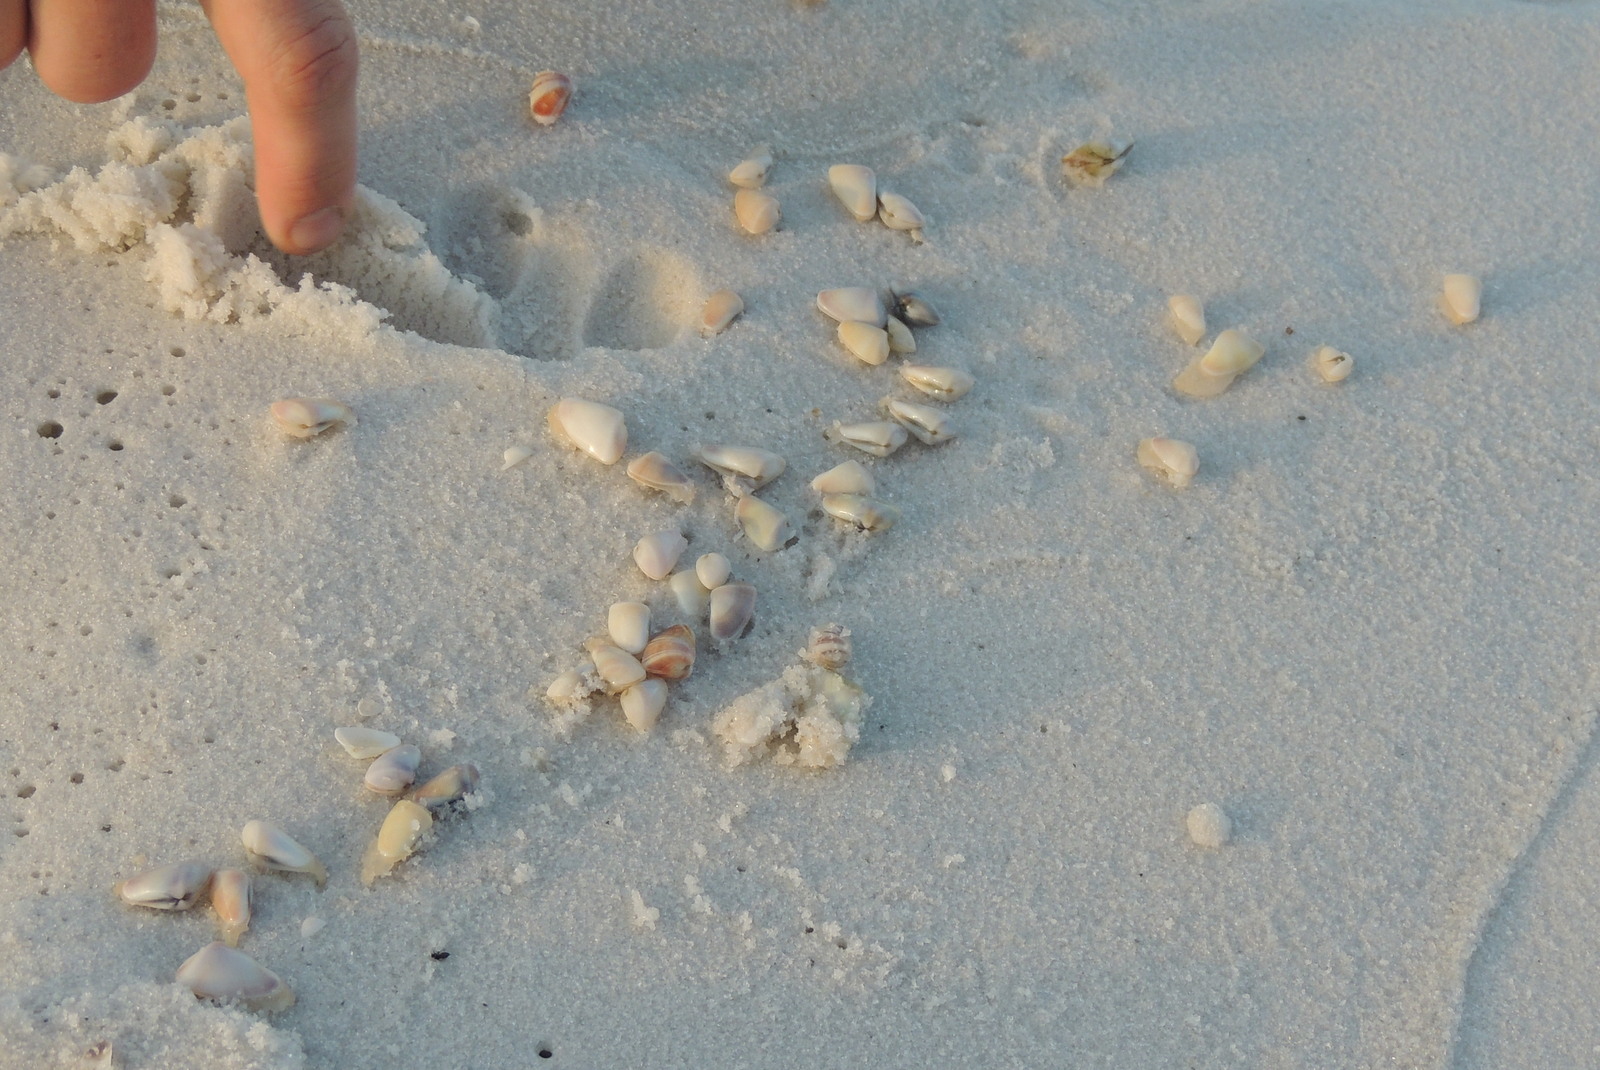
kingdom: Animalia
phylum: Mollusca
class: Bivalvia
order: Cardiida
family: Donacidae
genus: Donax
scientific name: Donax variabilis
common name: Butterfly shell
